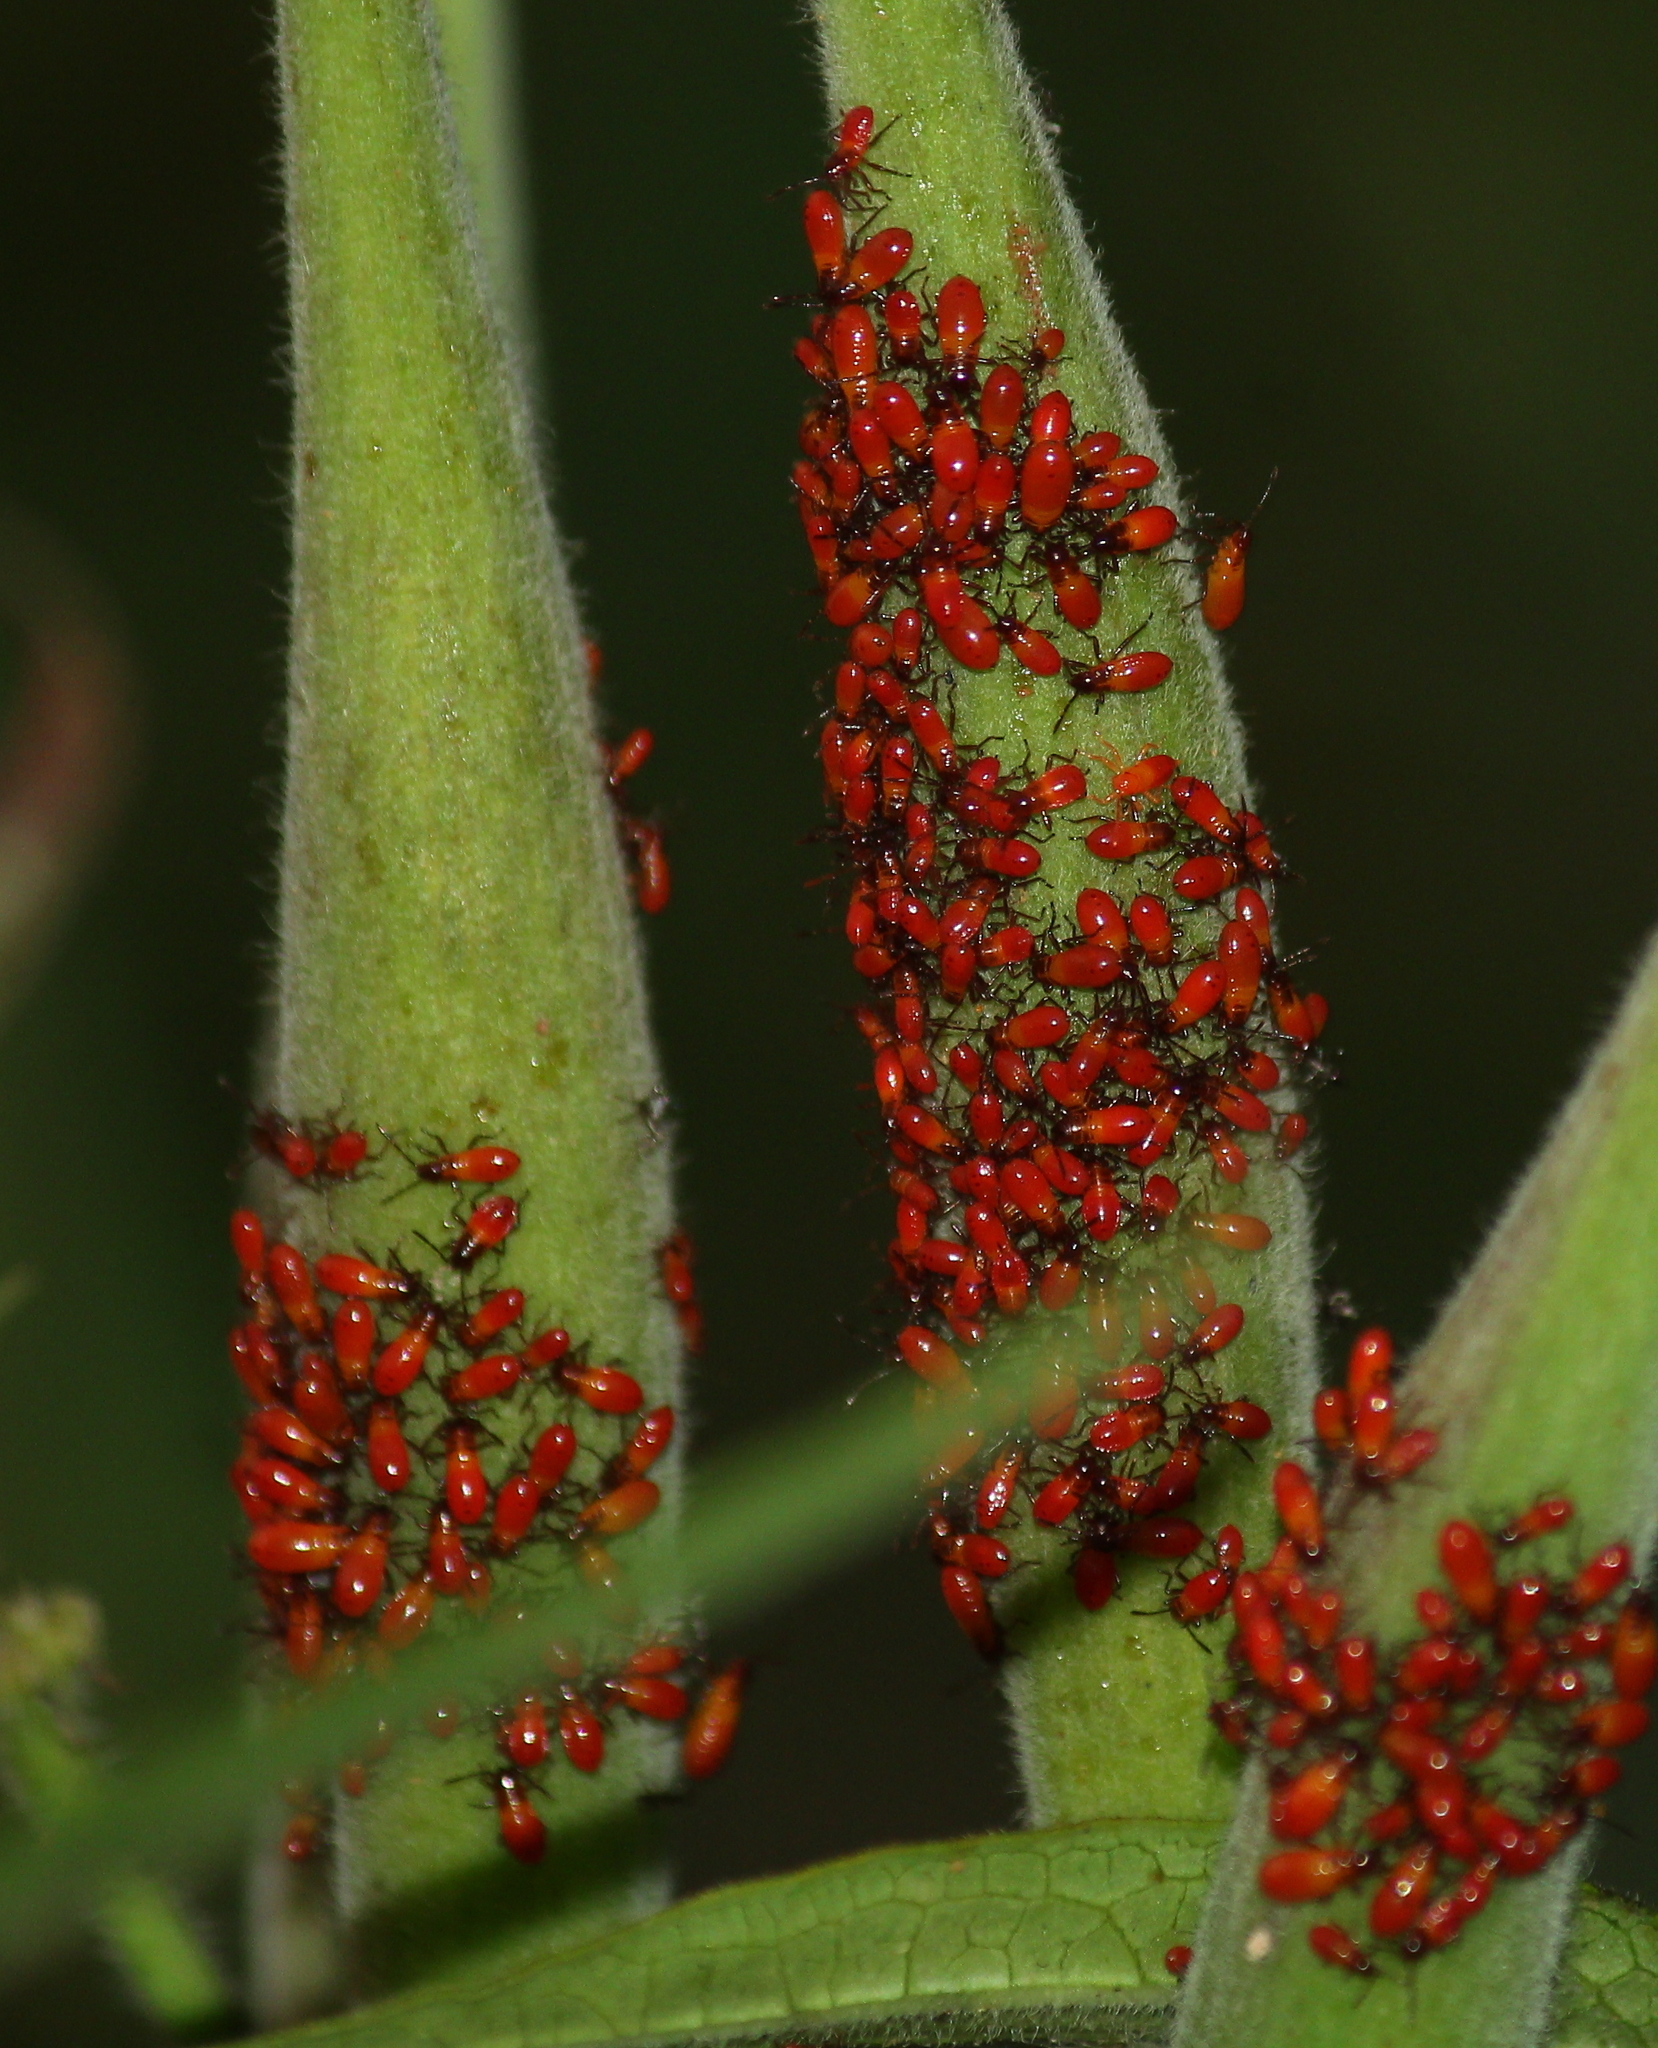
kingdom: Animalia
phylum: Arthropoda
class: Insecta
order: Hemiptera
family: Lygaeidae
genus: Oncopeltus
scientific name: Oncopeltus fasciatus
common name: Large milkweed bug
